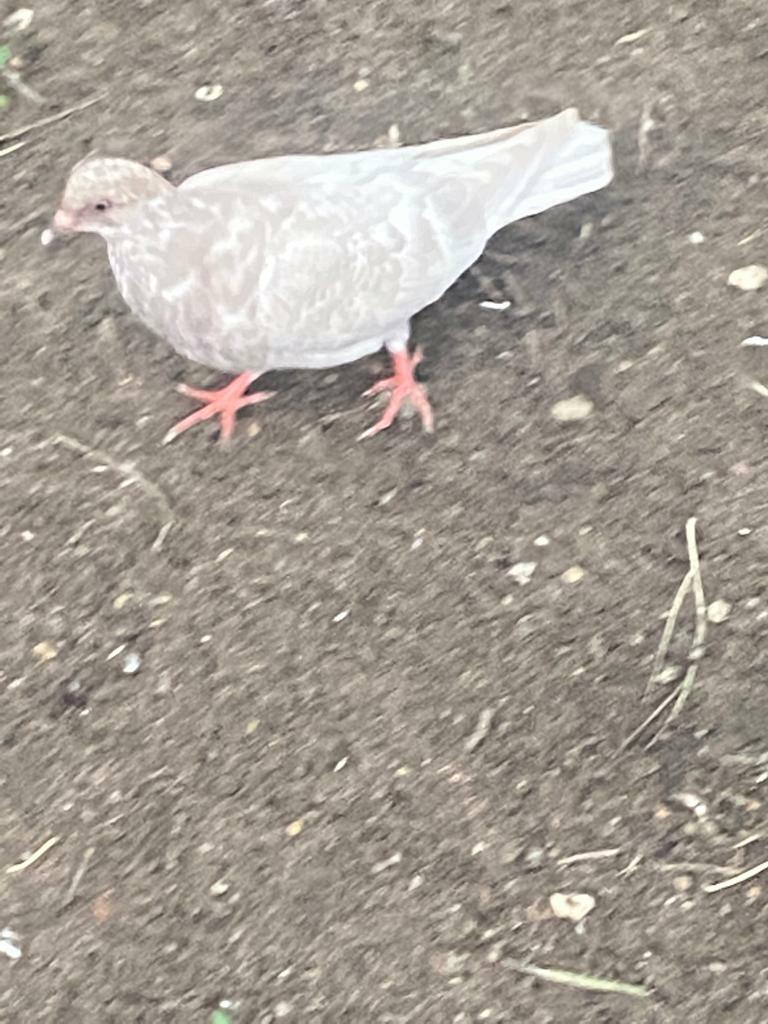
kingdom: Animalia
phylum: Chordata
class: Aves
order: Columbiformes
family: Columbidae
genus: Columba
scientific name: Columba livia
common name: Rock pigeon
